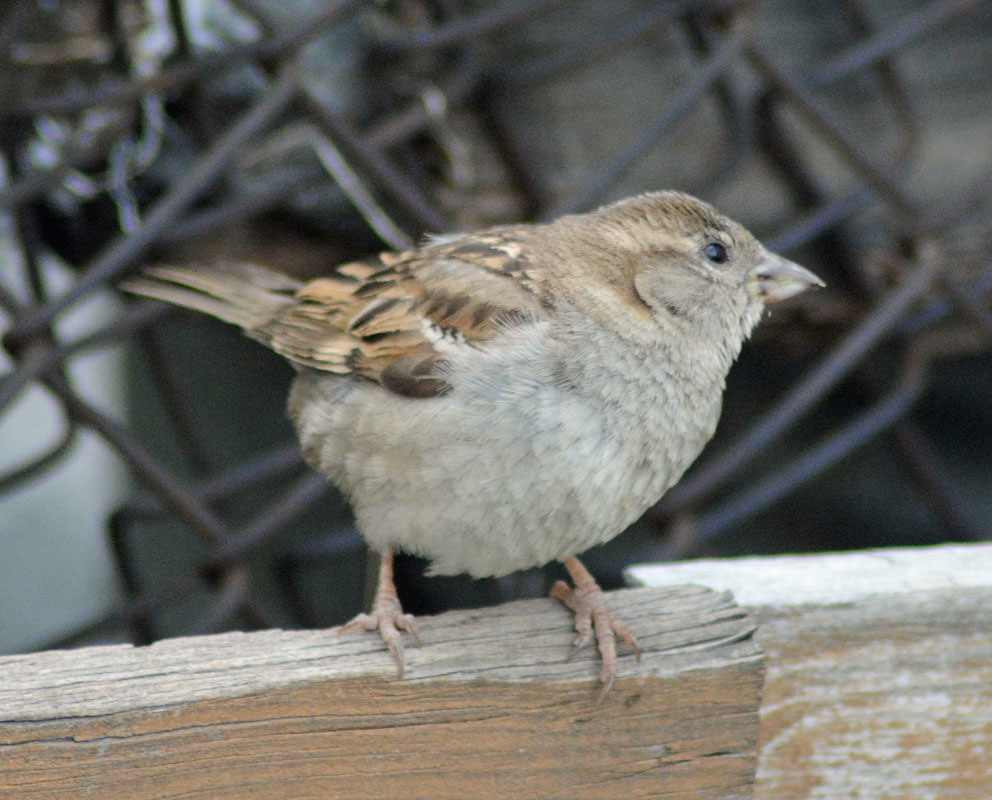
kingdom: Animalia
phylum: Chordata
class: Aves
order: Passeriformes
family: Passeridae
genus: Passer
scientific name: Passer domesticus
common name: House sparrow
